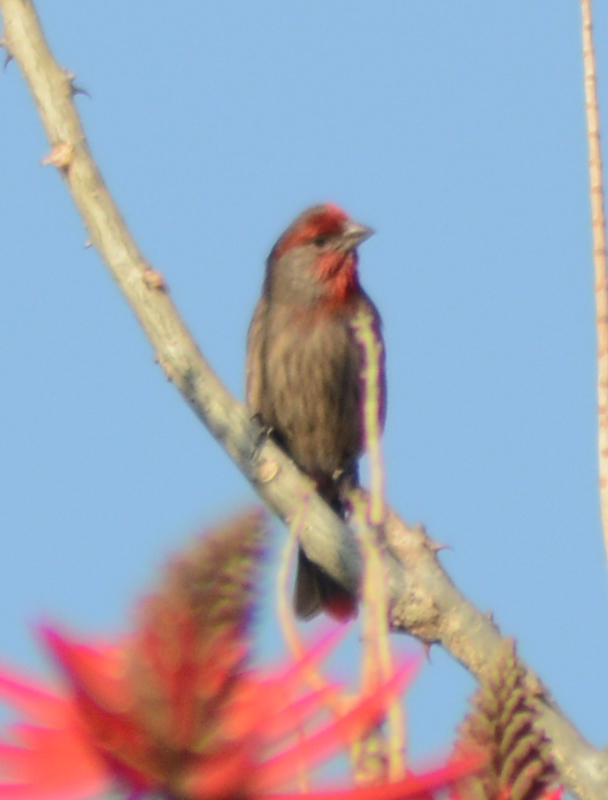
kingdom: Animalia
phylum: Chordata
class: Aves
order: Passeriformes
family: Fringillidae
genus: Haemorhous
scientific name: Haemorhous mexicanus
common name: House finch
